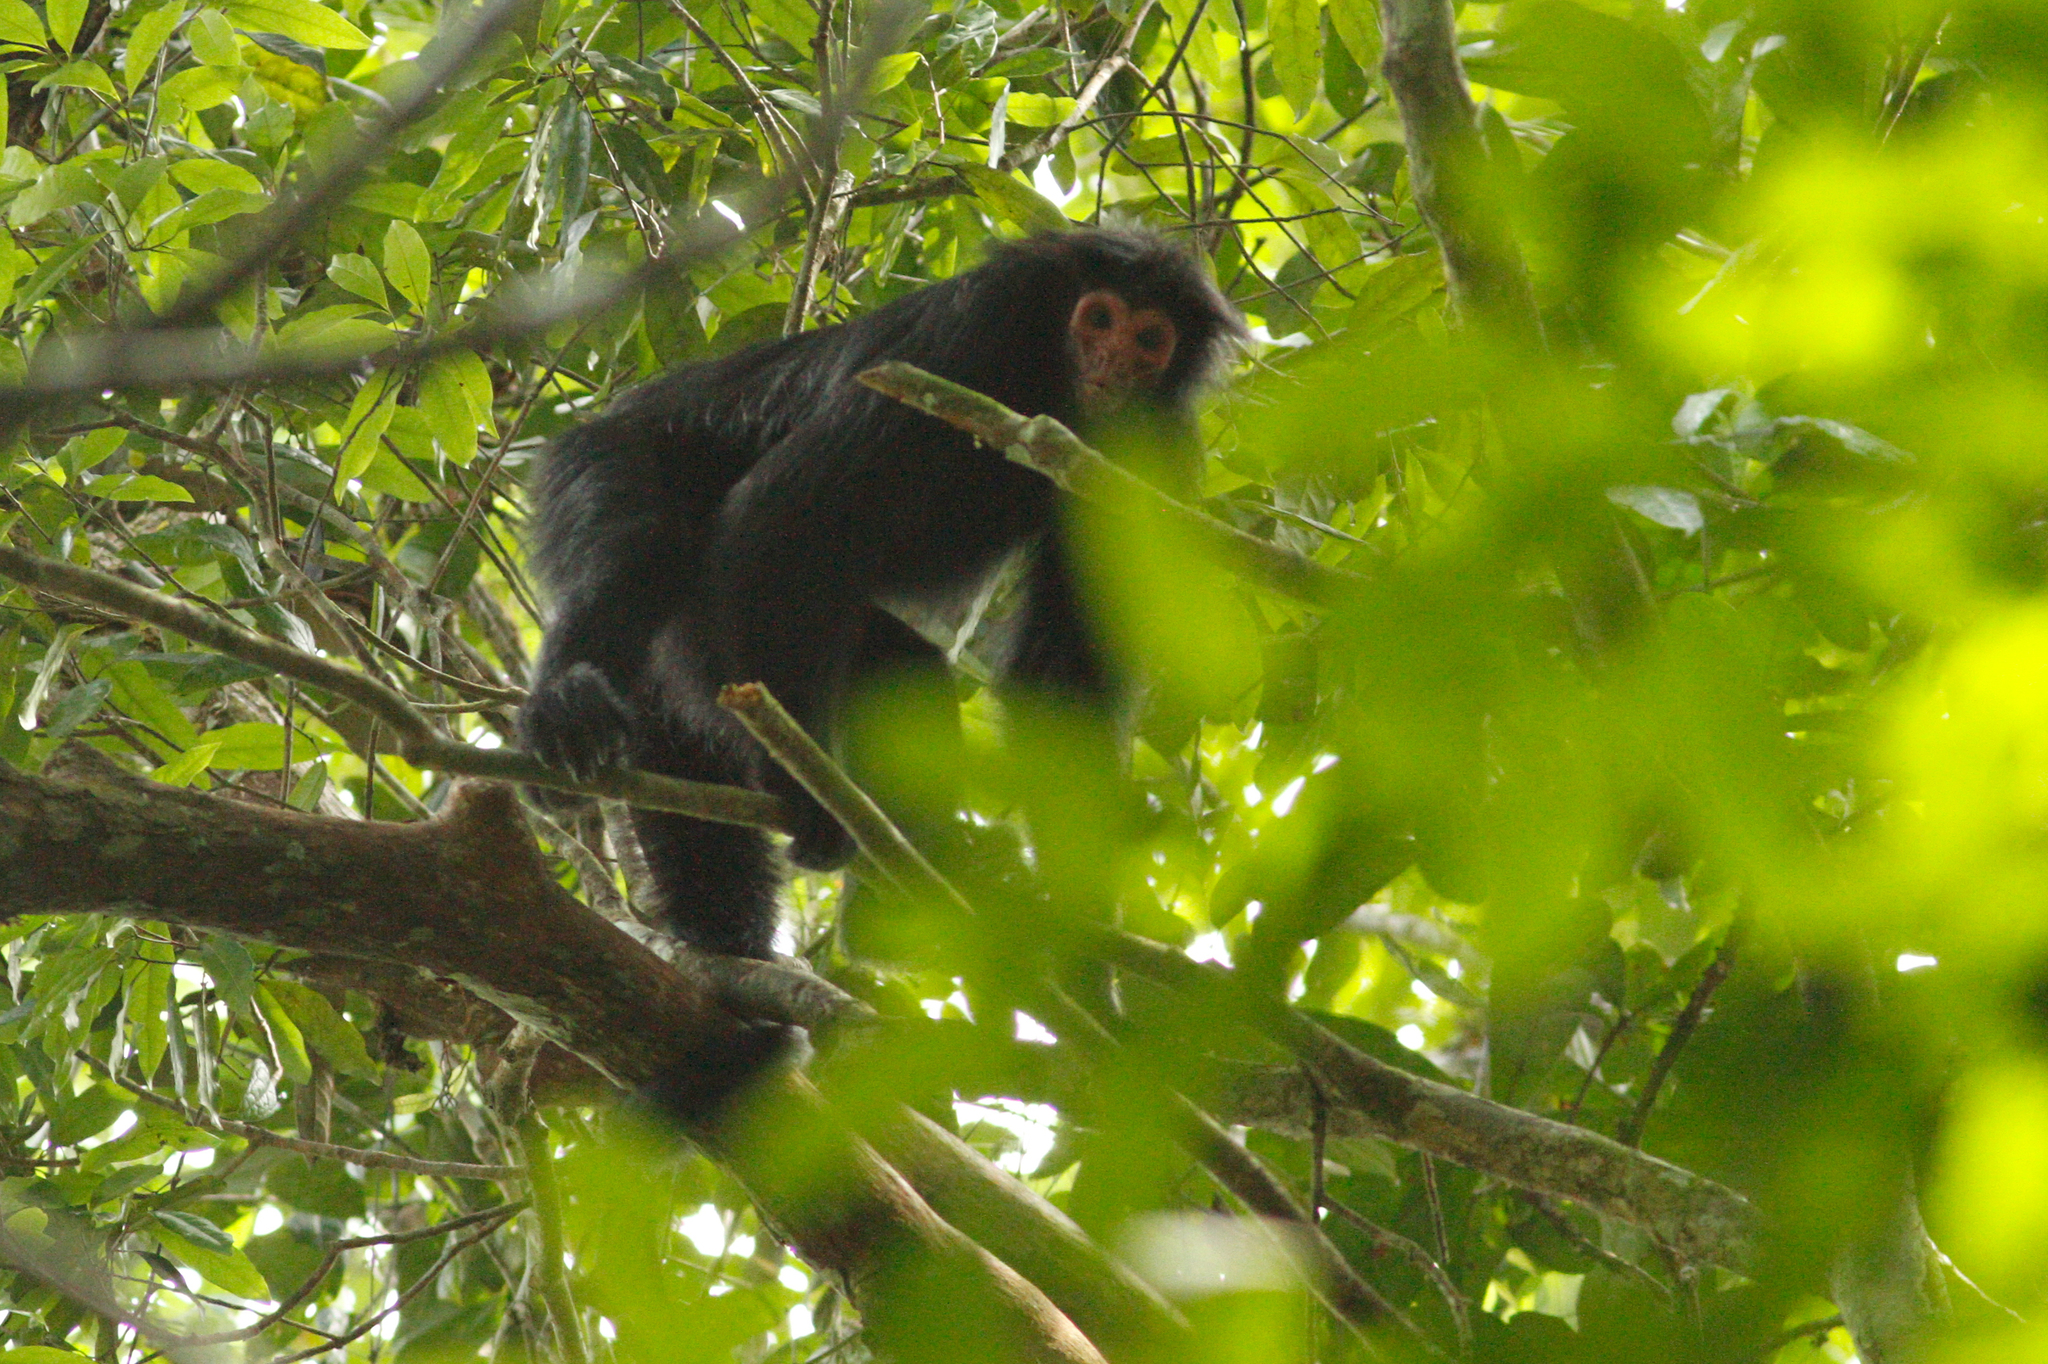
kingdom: Animalia
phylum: Chordata
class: Mammalia
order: Primates
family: Atelidae
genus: Ateles
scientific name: Ateles paniscus
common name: Red-faced spider monkey
